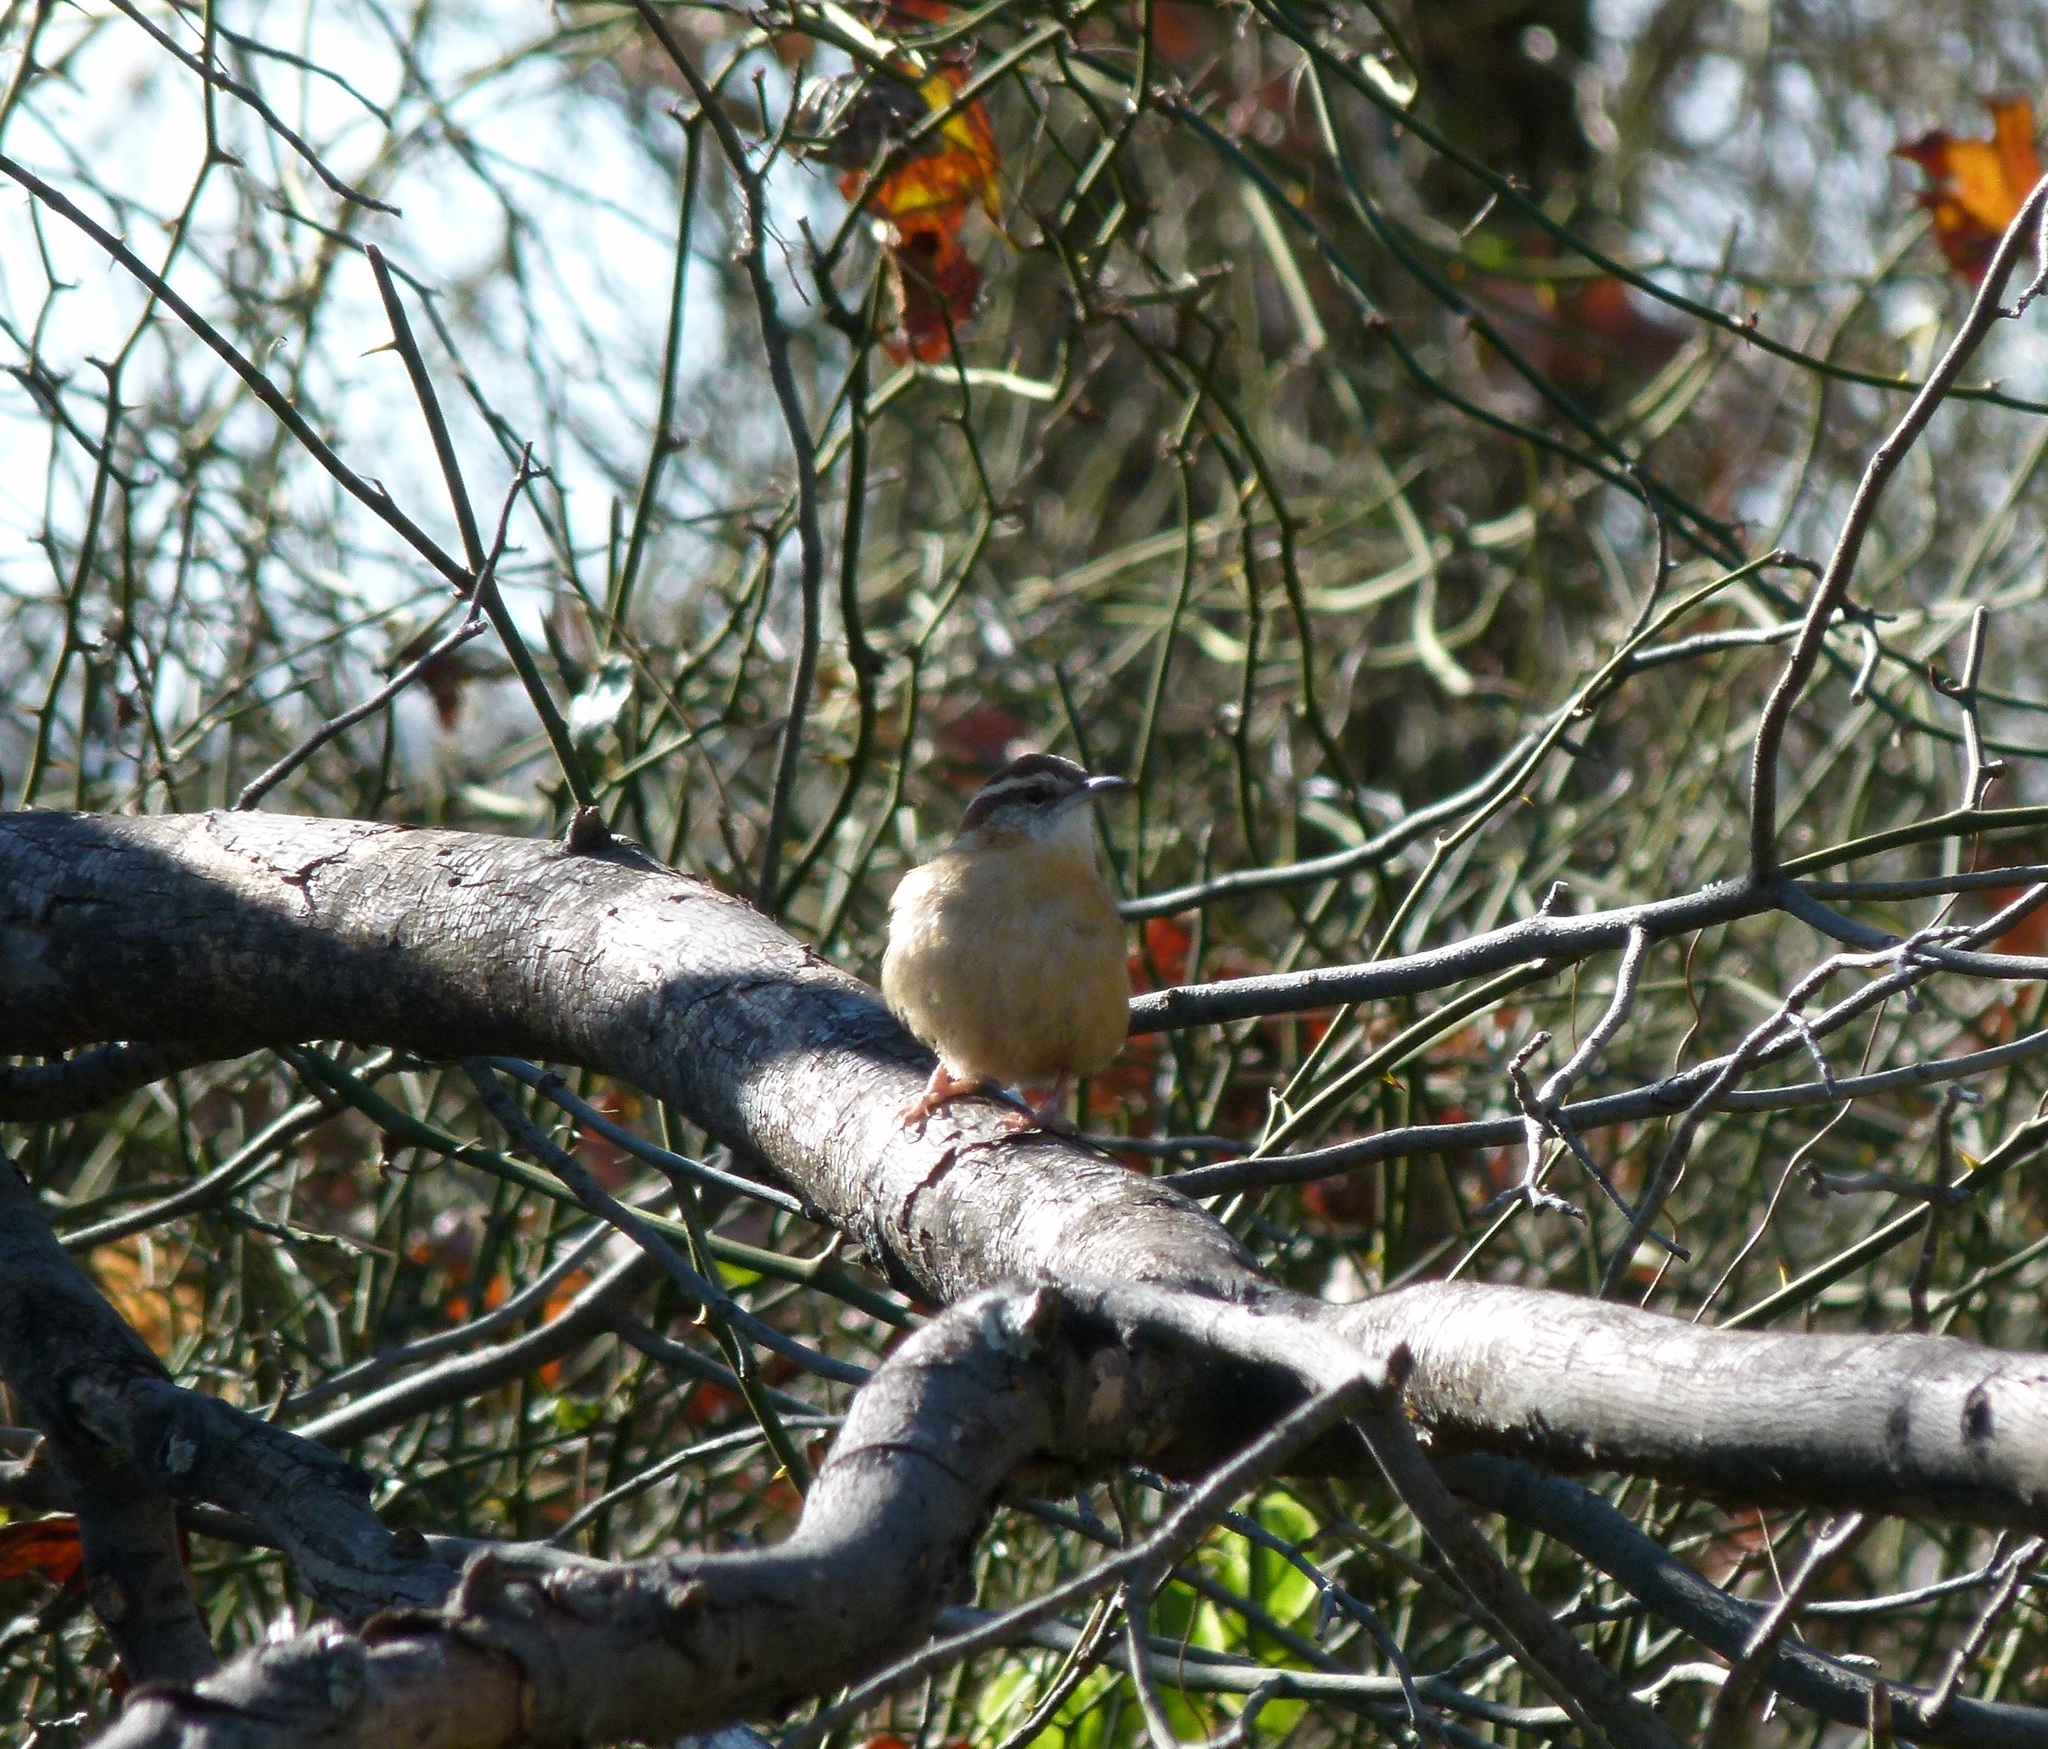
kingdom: Animalia
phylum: Chordata
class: Aves
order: Passeriformes
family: Troglodytidae
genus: Thryothorus
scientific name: Thryothorus ludovicianus
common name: Carolina wren
